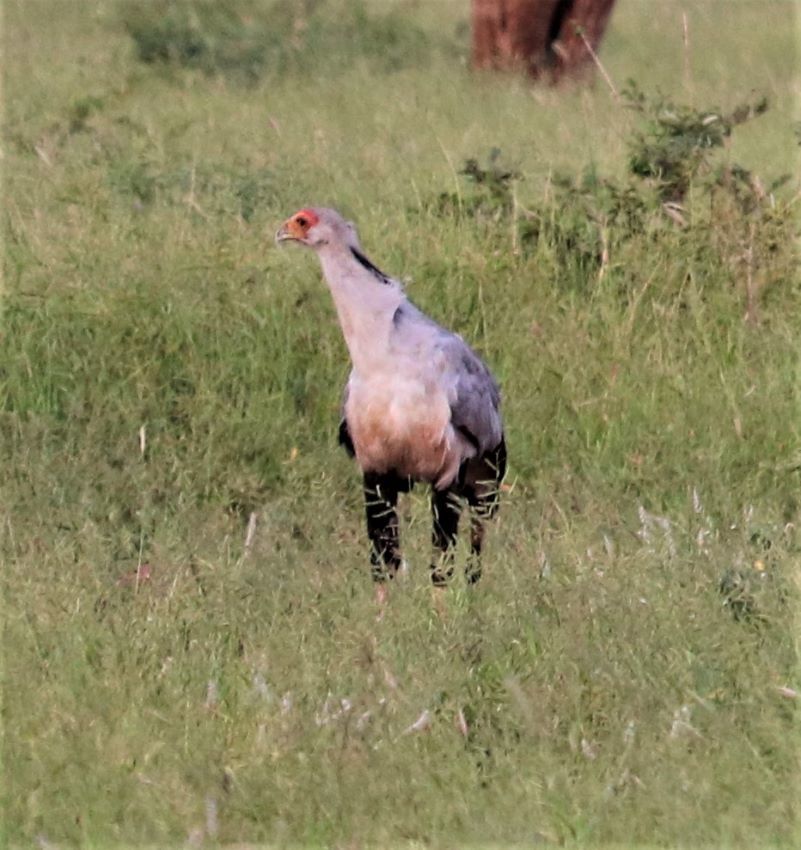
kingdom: Animalia
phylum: Chordata
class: Aves
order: Accipitriformes
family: Sagittariidae
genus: Sagittarius
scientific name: Sagittarius serpentarius
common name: Secretarybird
